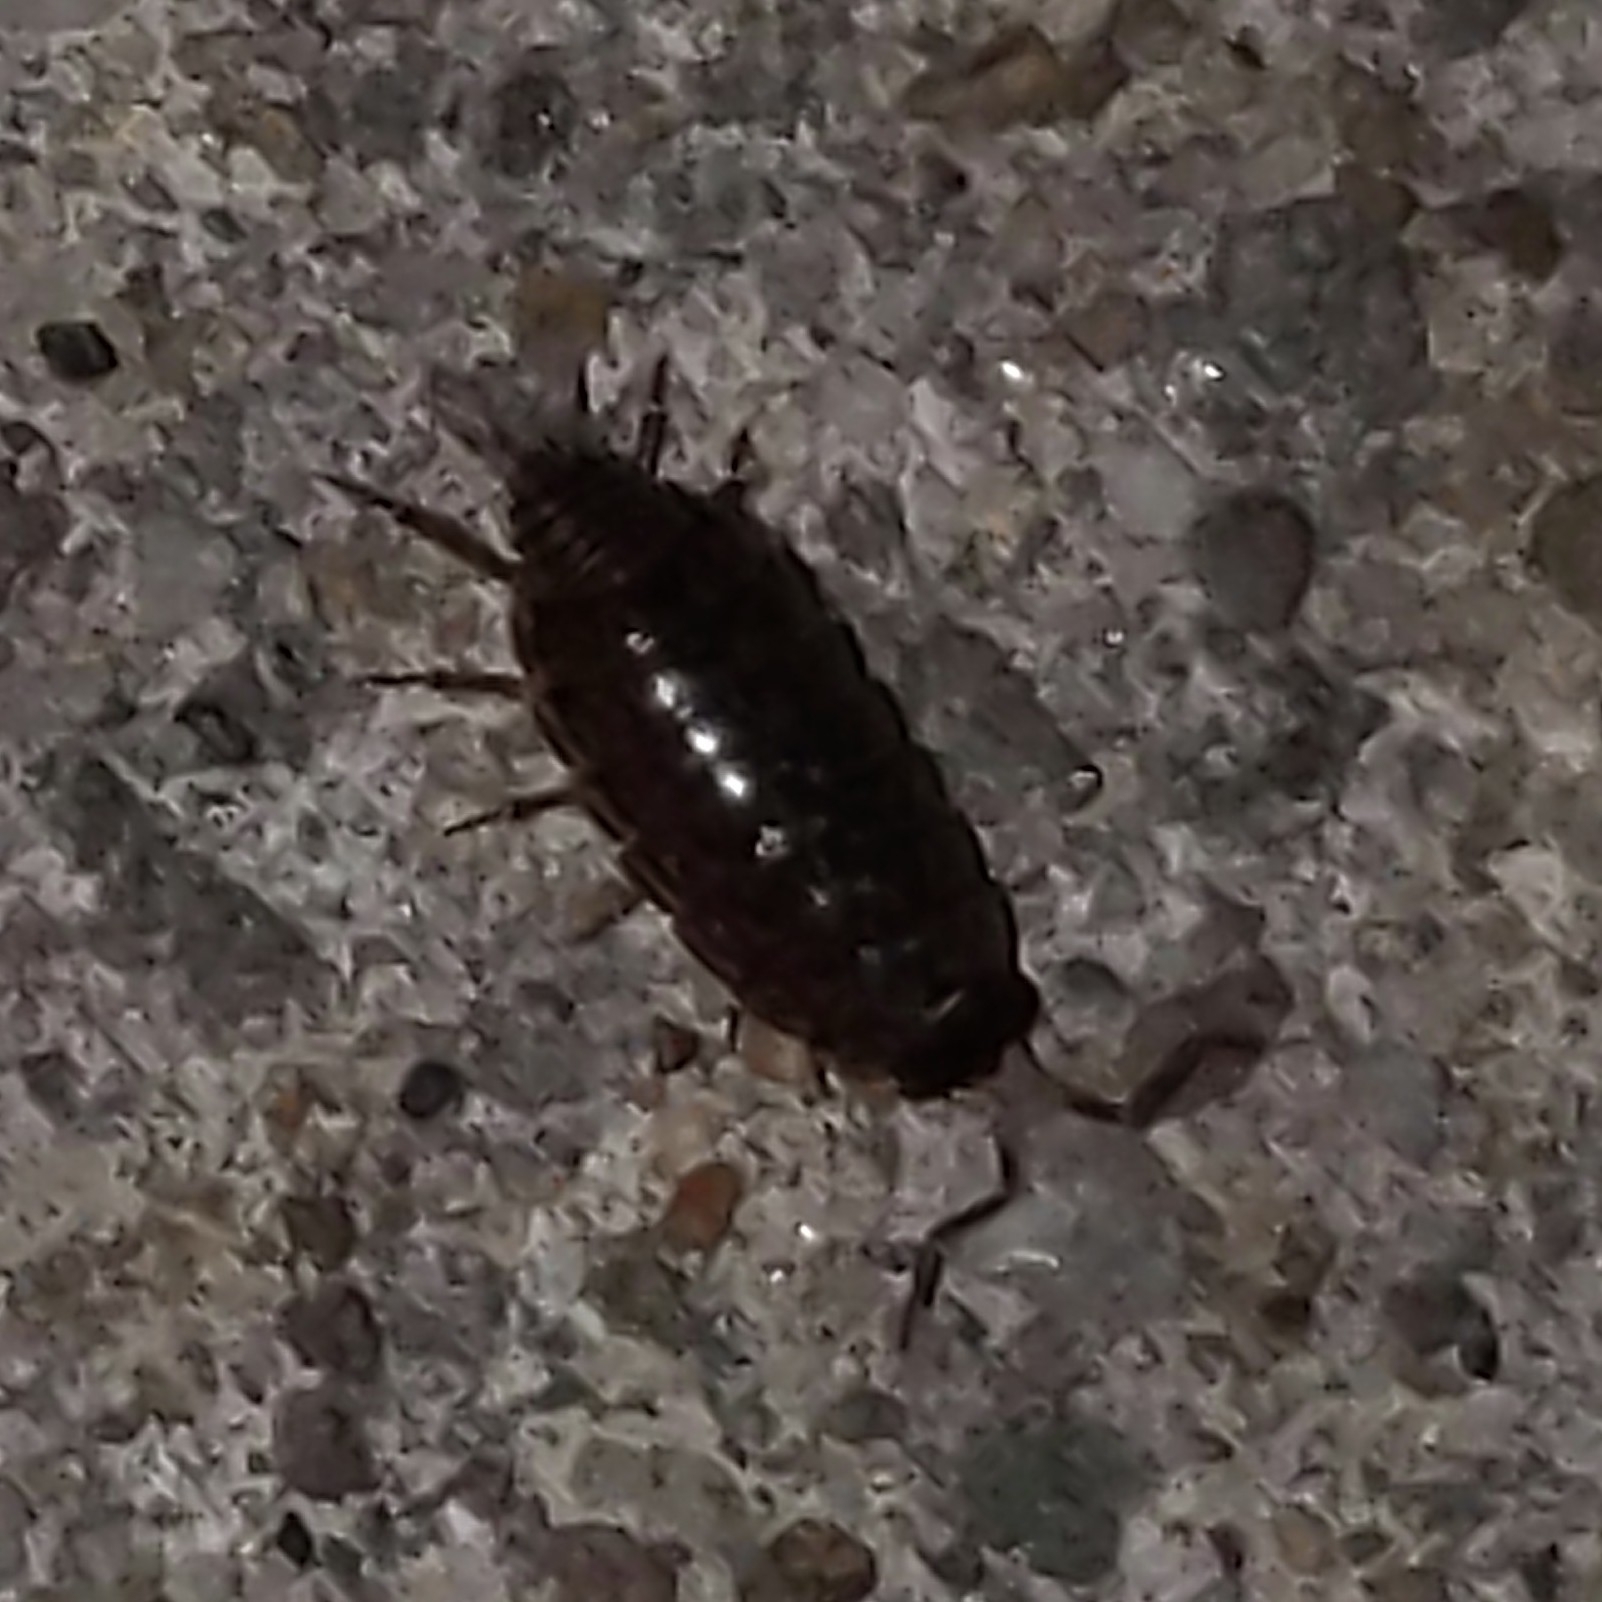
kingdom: Animalia
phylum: Arthropoda
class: Malacostraca
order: Isopoda
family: Philosciidae
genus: Philoscia
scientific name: Philoscia muscorum
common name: Common striped woodlouse
